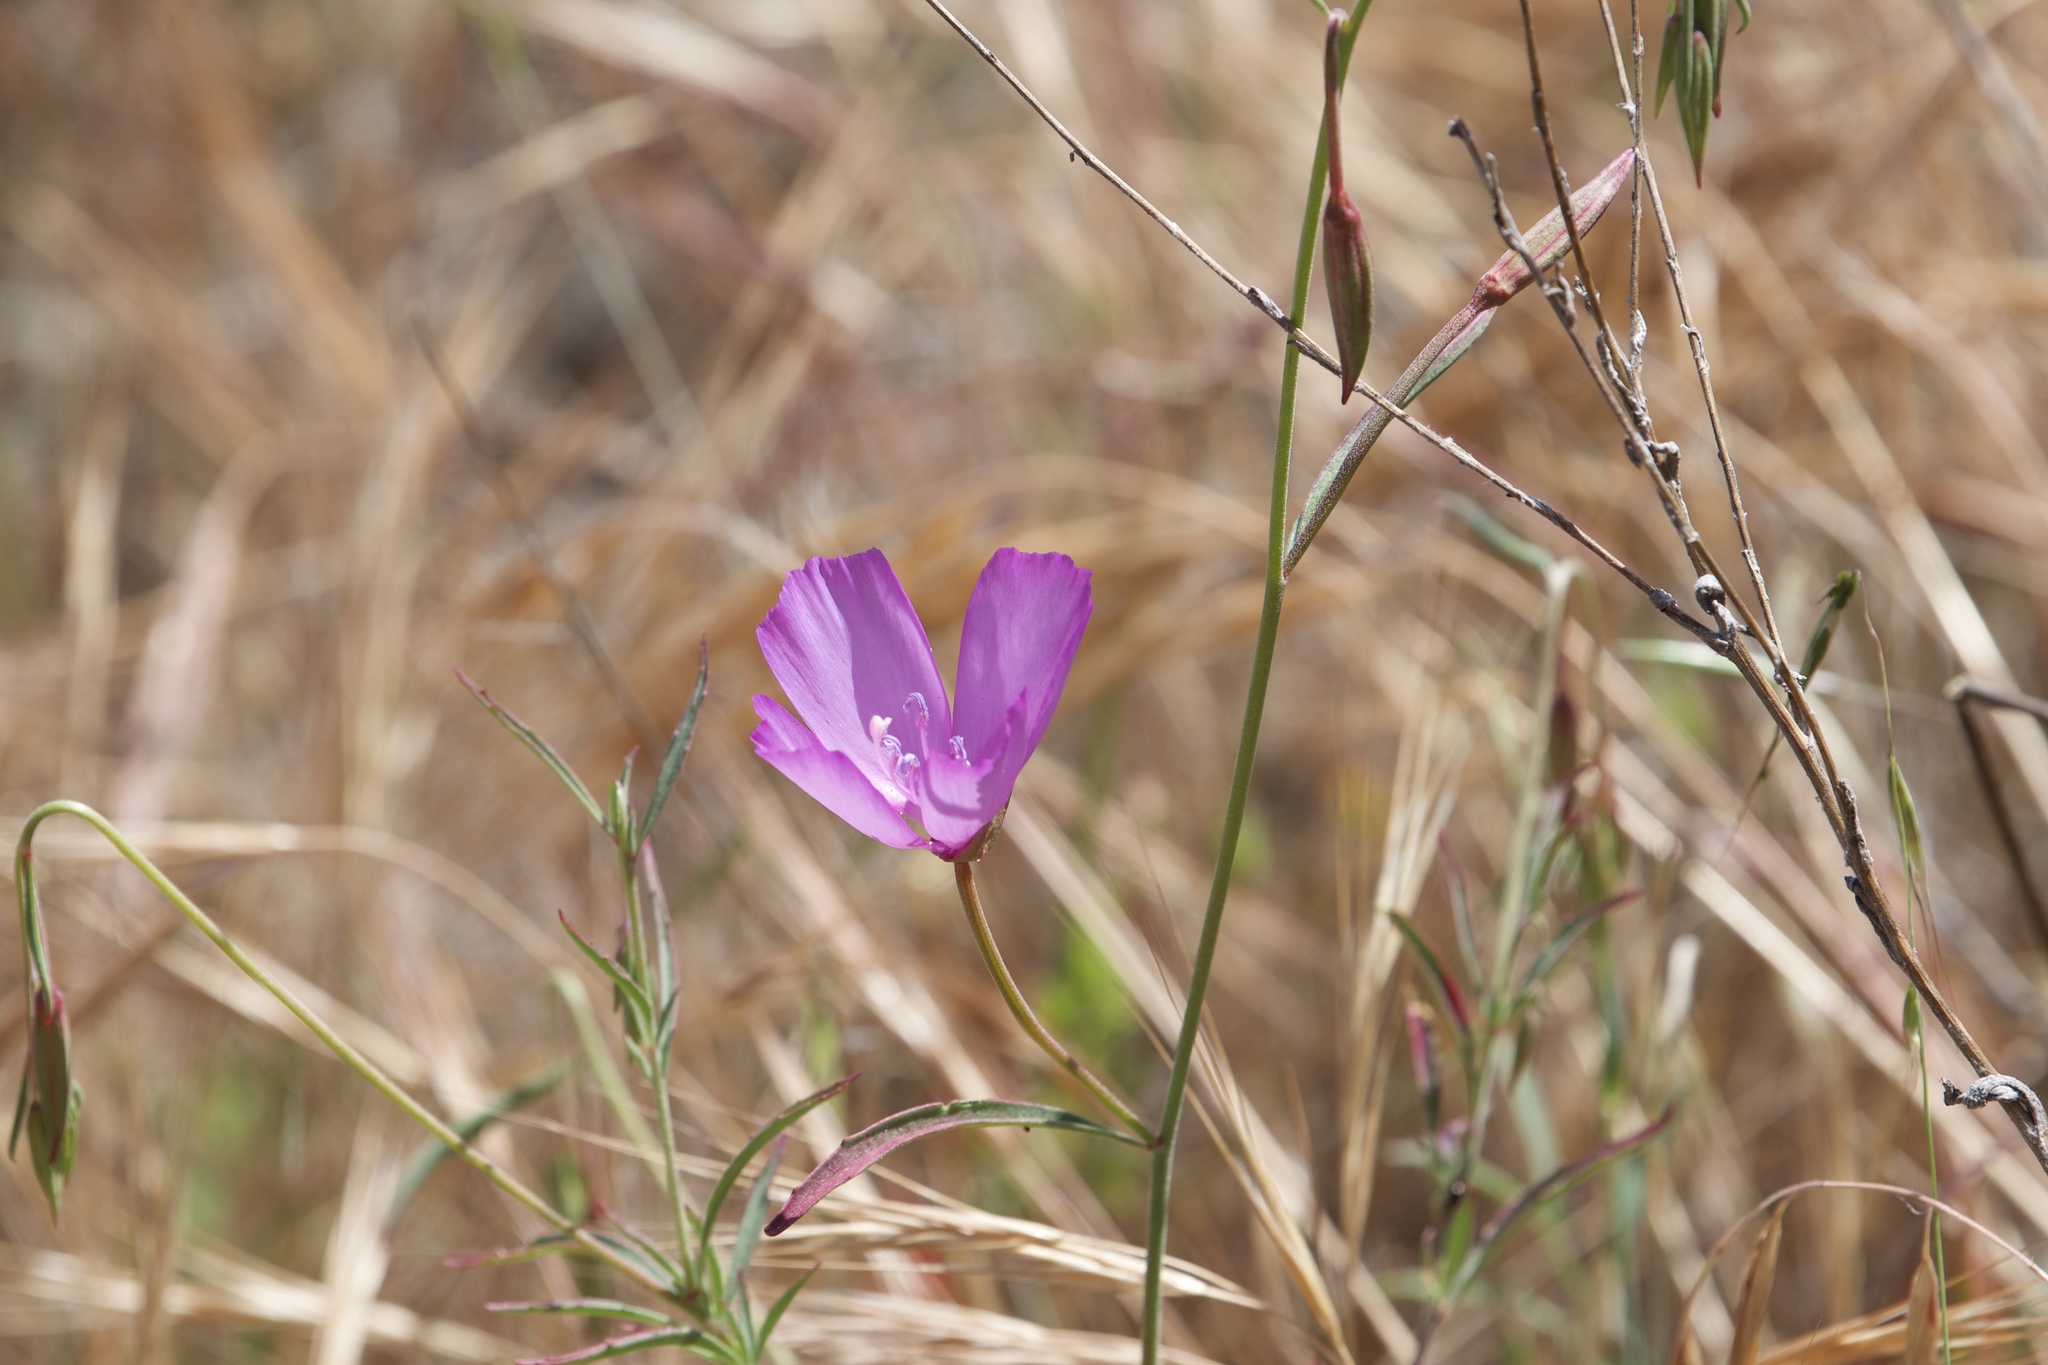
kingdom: Plantae
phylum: Tracheophyta
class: Magnoliopsida
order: Myrtales
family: Onagraceae
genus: Clarkia
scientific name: Clarkia lewisii
